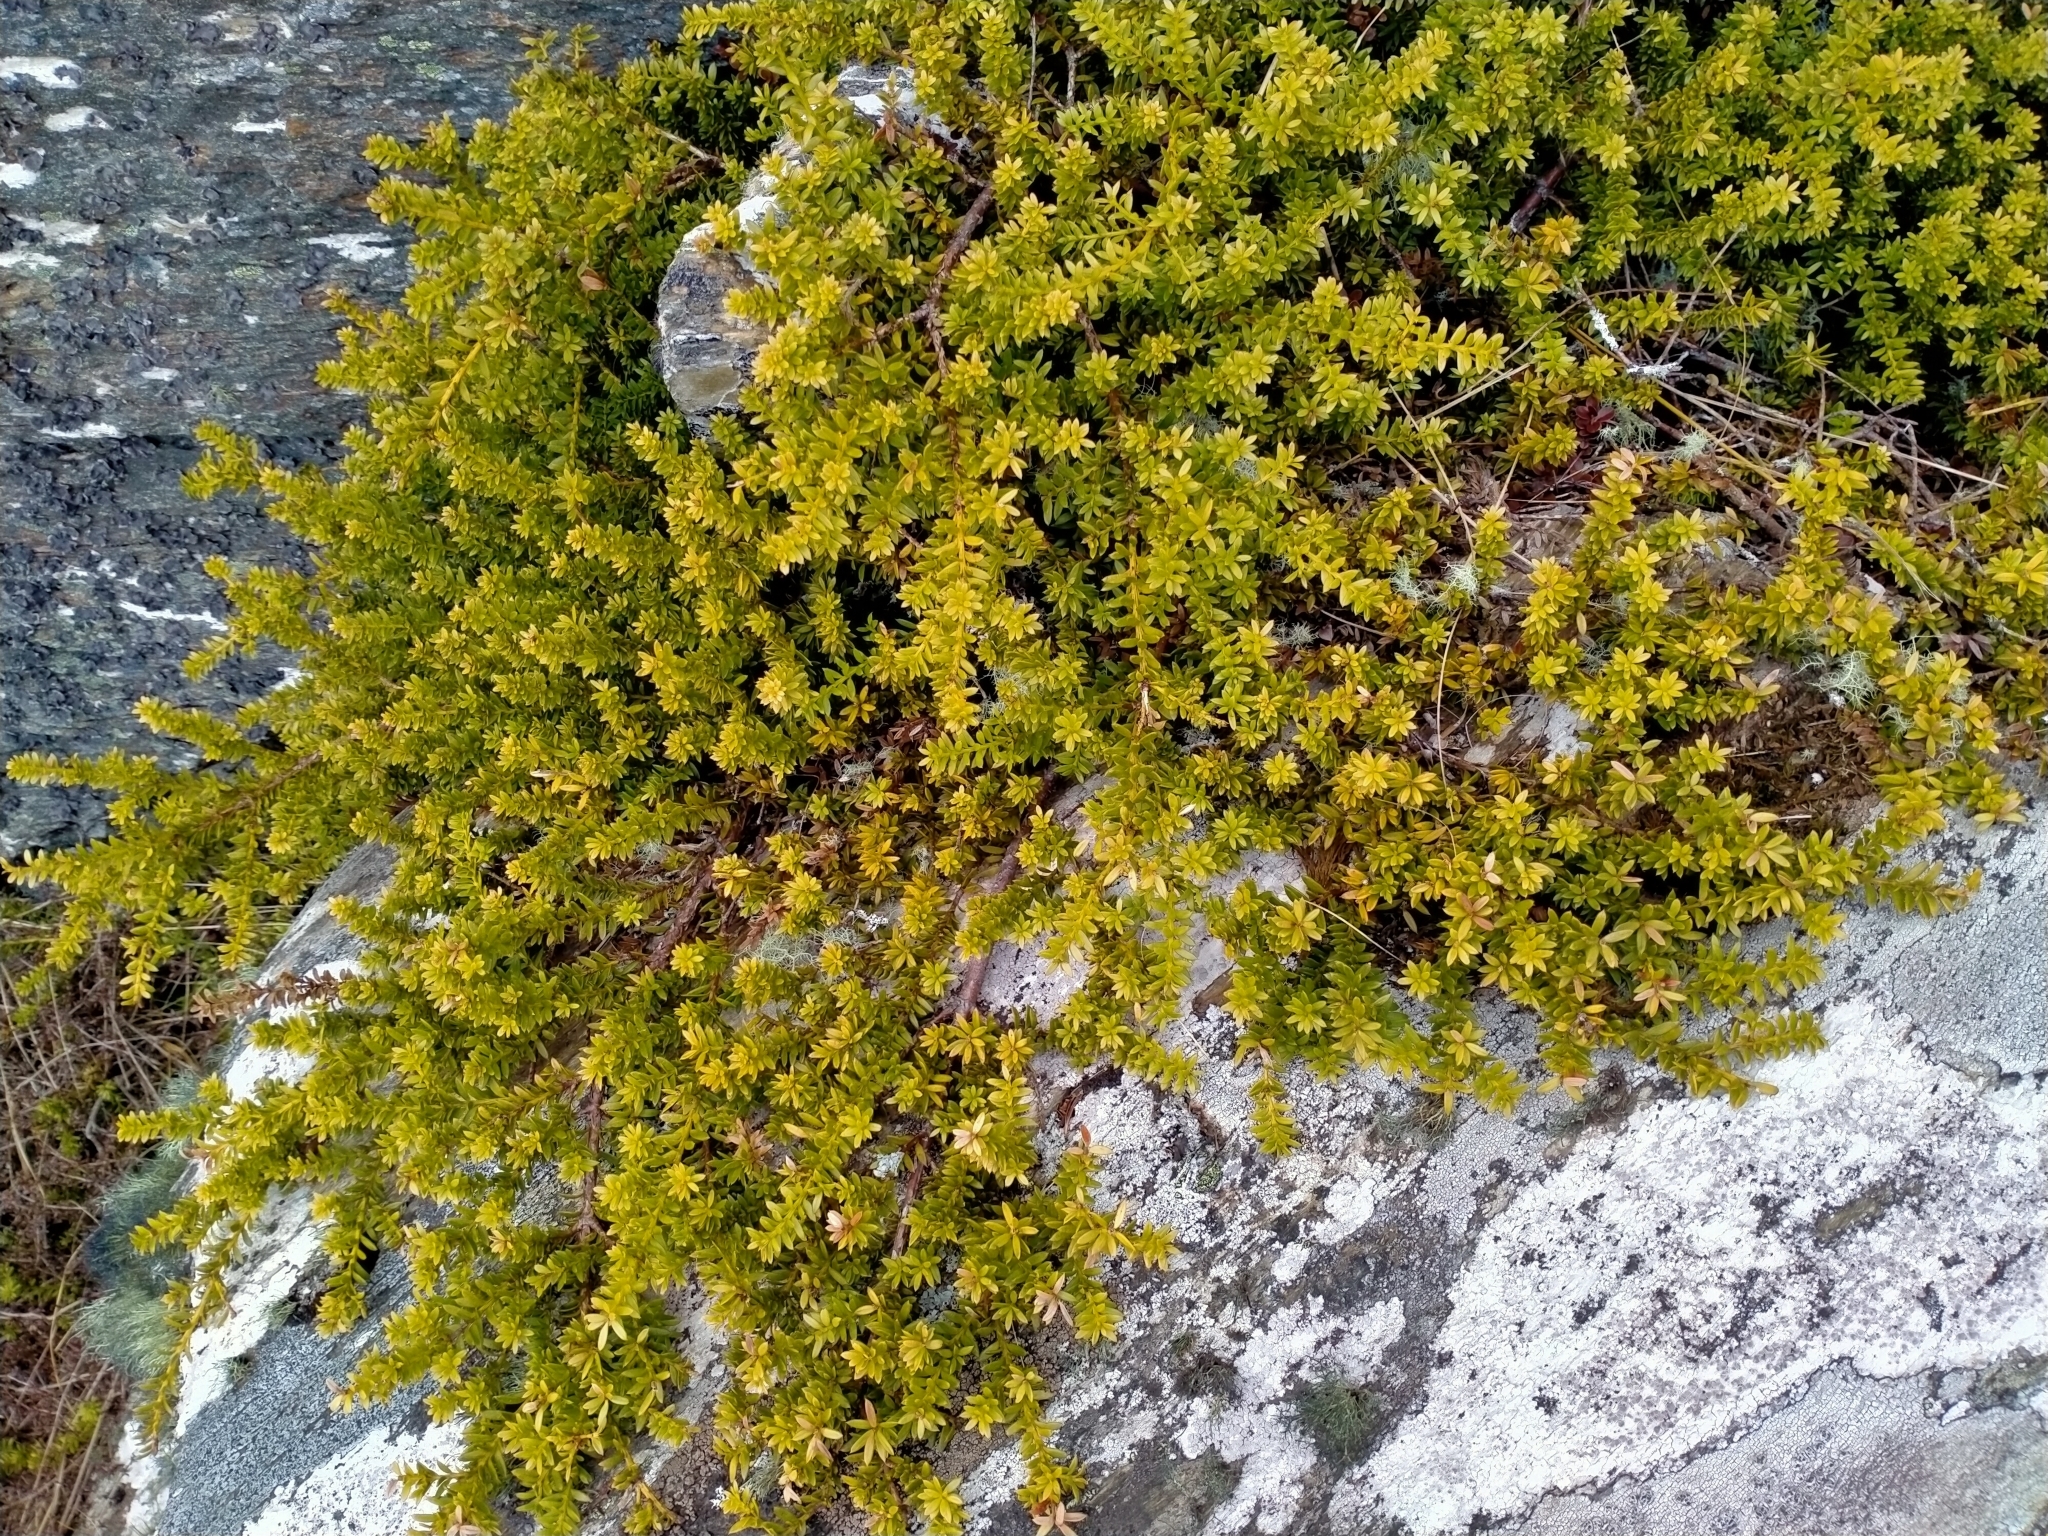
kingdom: Plantae
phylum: Tracheophyta
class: Pinopsida
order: Pinales
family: Podocarpaceae
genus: Podocarpus
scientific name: Podocarpus nivalis
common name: Alpine totara
